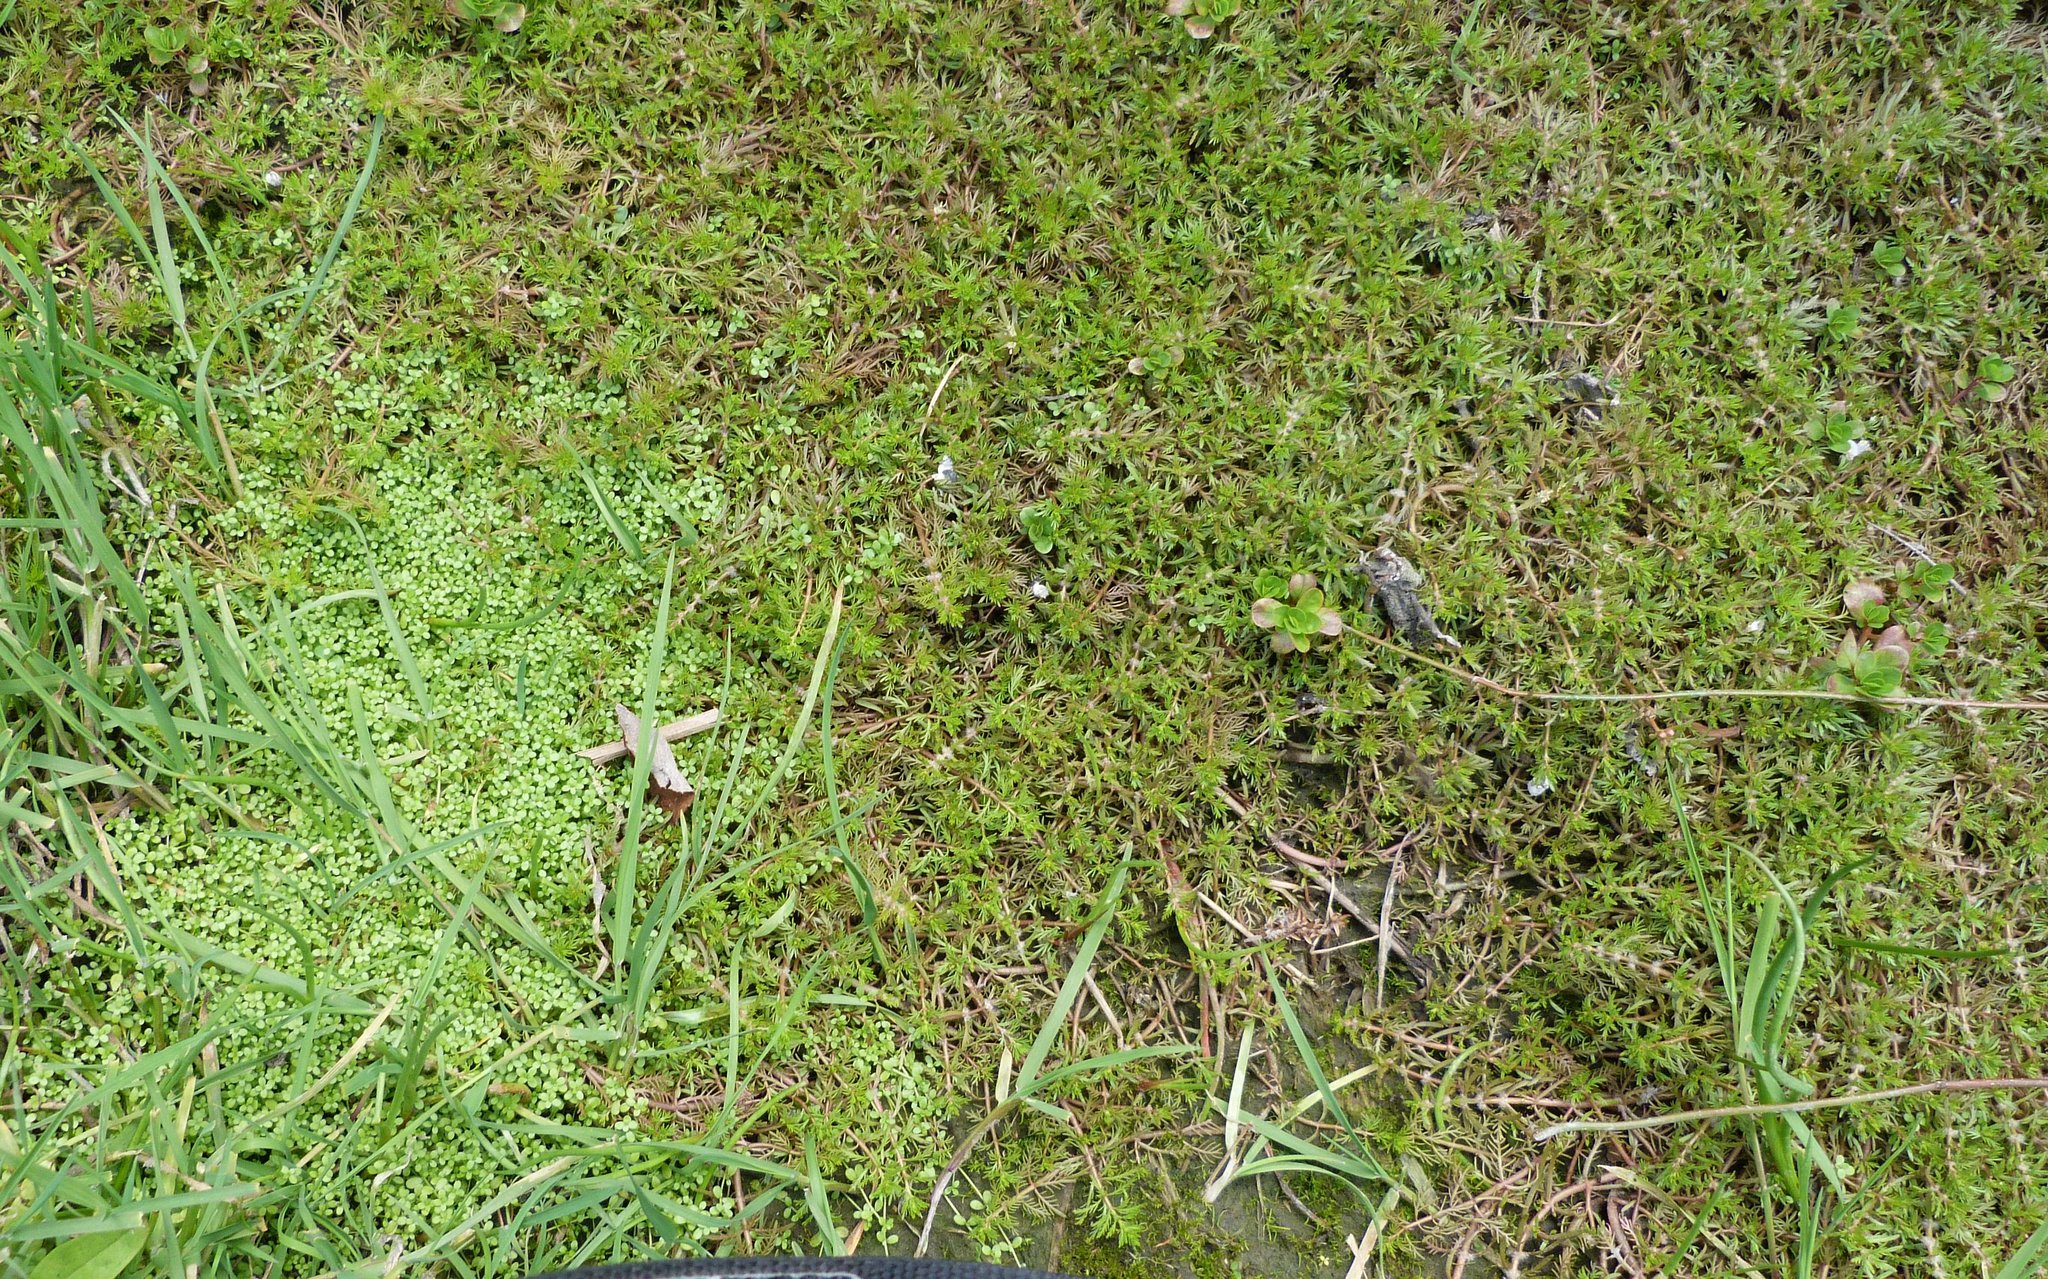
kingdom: Plantae
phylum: Tracheophyta
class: Magnoliopsida
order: Saxifragales
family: Haloragaceae
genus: Myriophyllum
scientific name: Myriophyllum triphyllum
